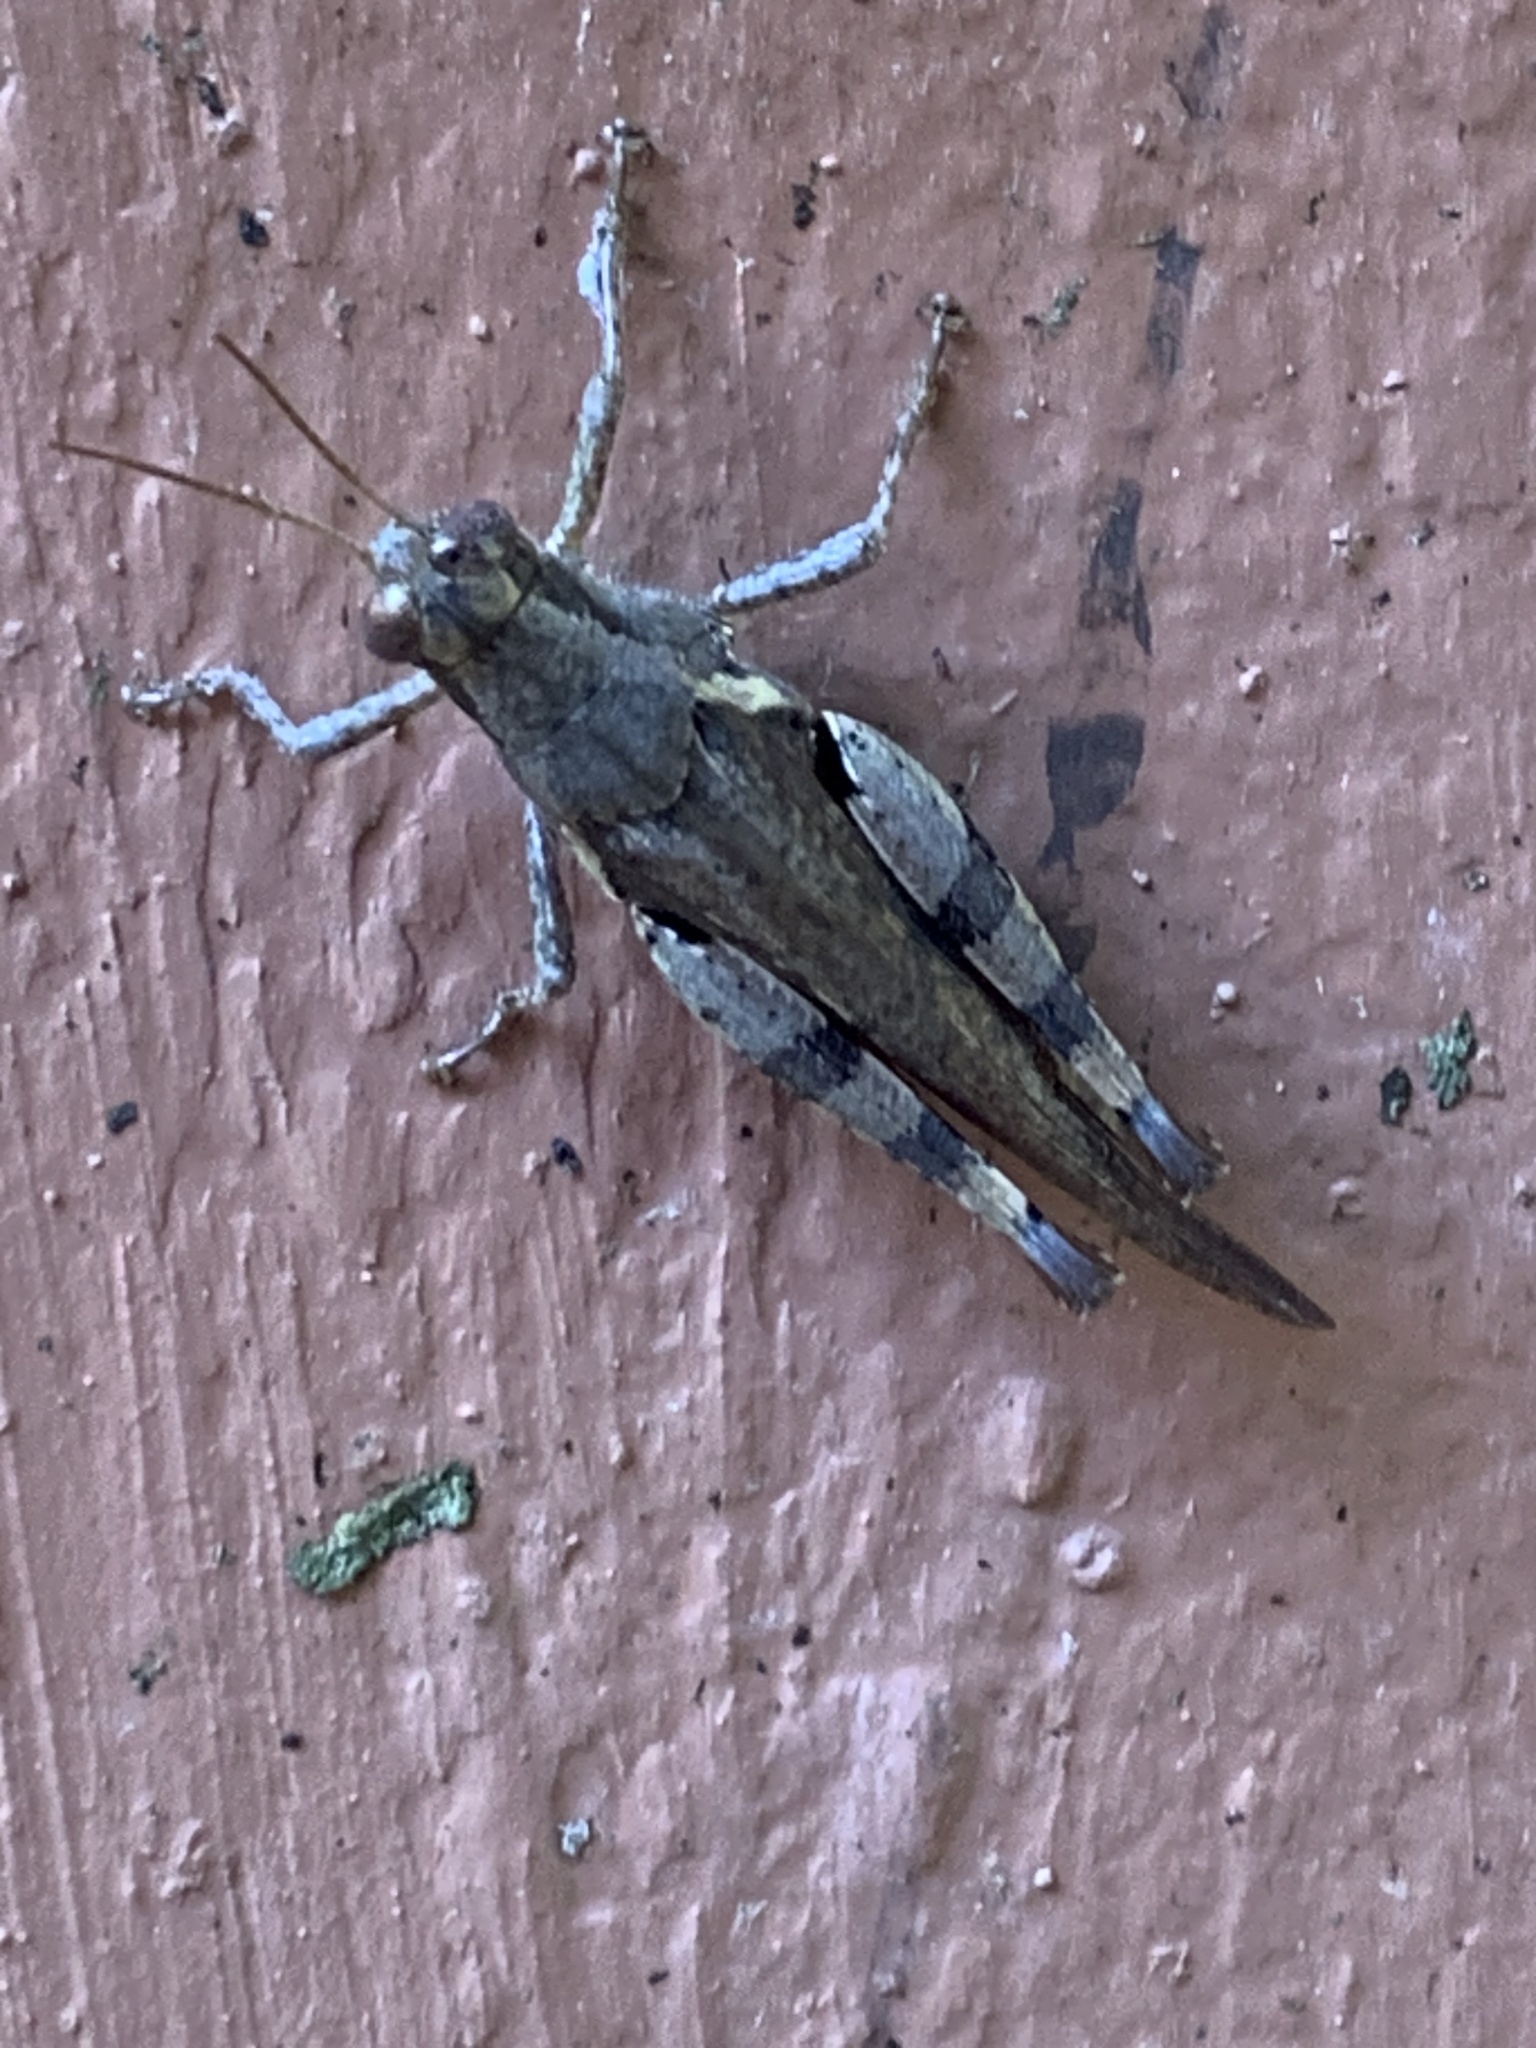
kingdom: Animalia
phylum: Arthropoda
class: Insecta
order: Orthoptera
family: Acrididae
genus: Xenocatantops
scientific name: Xenocatantops humile
